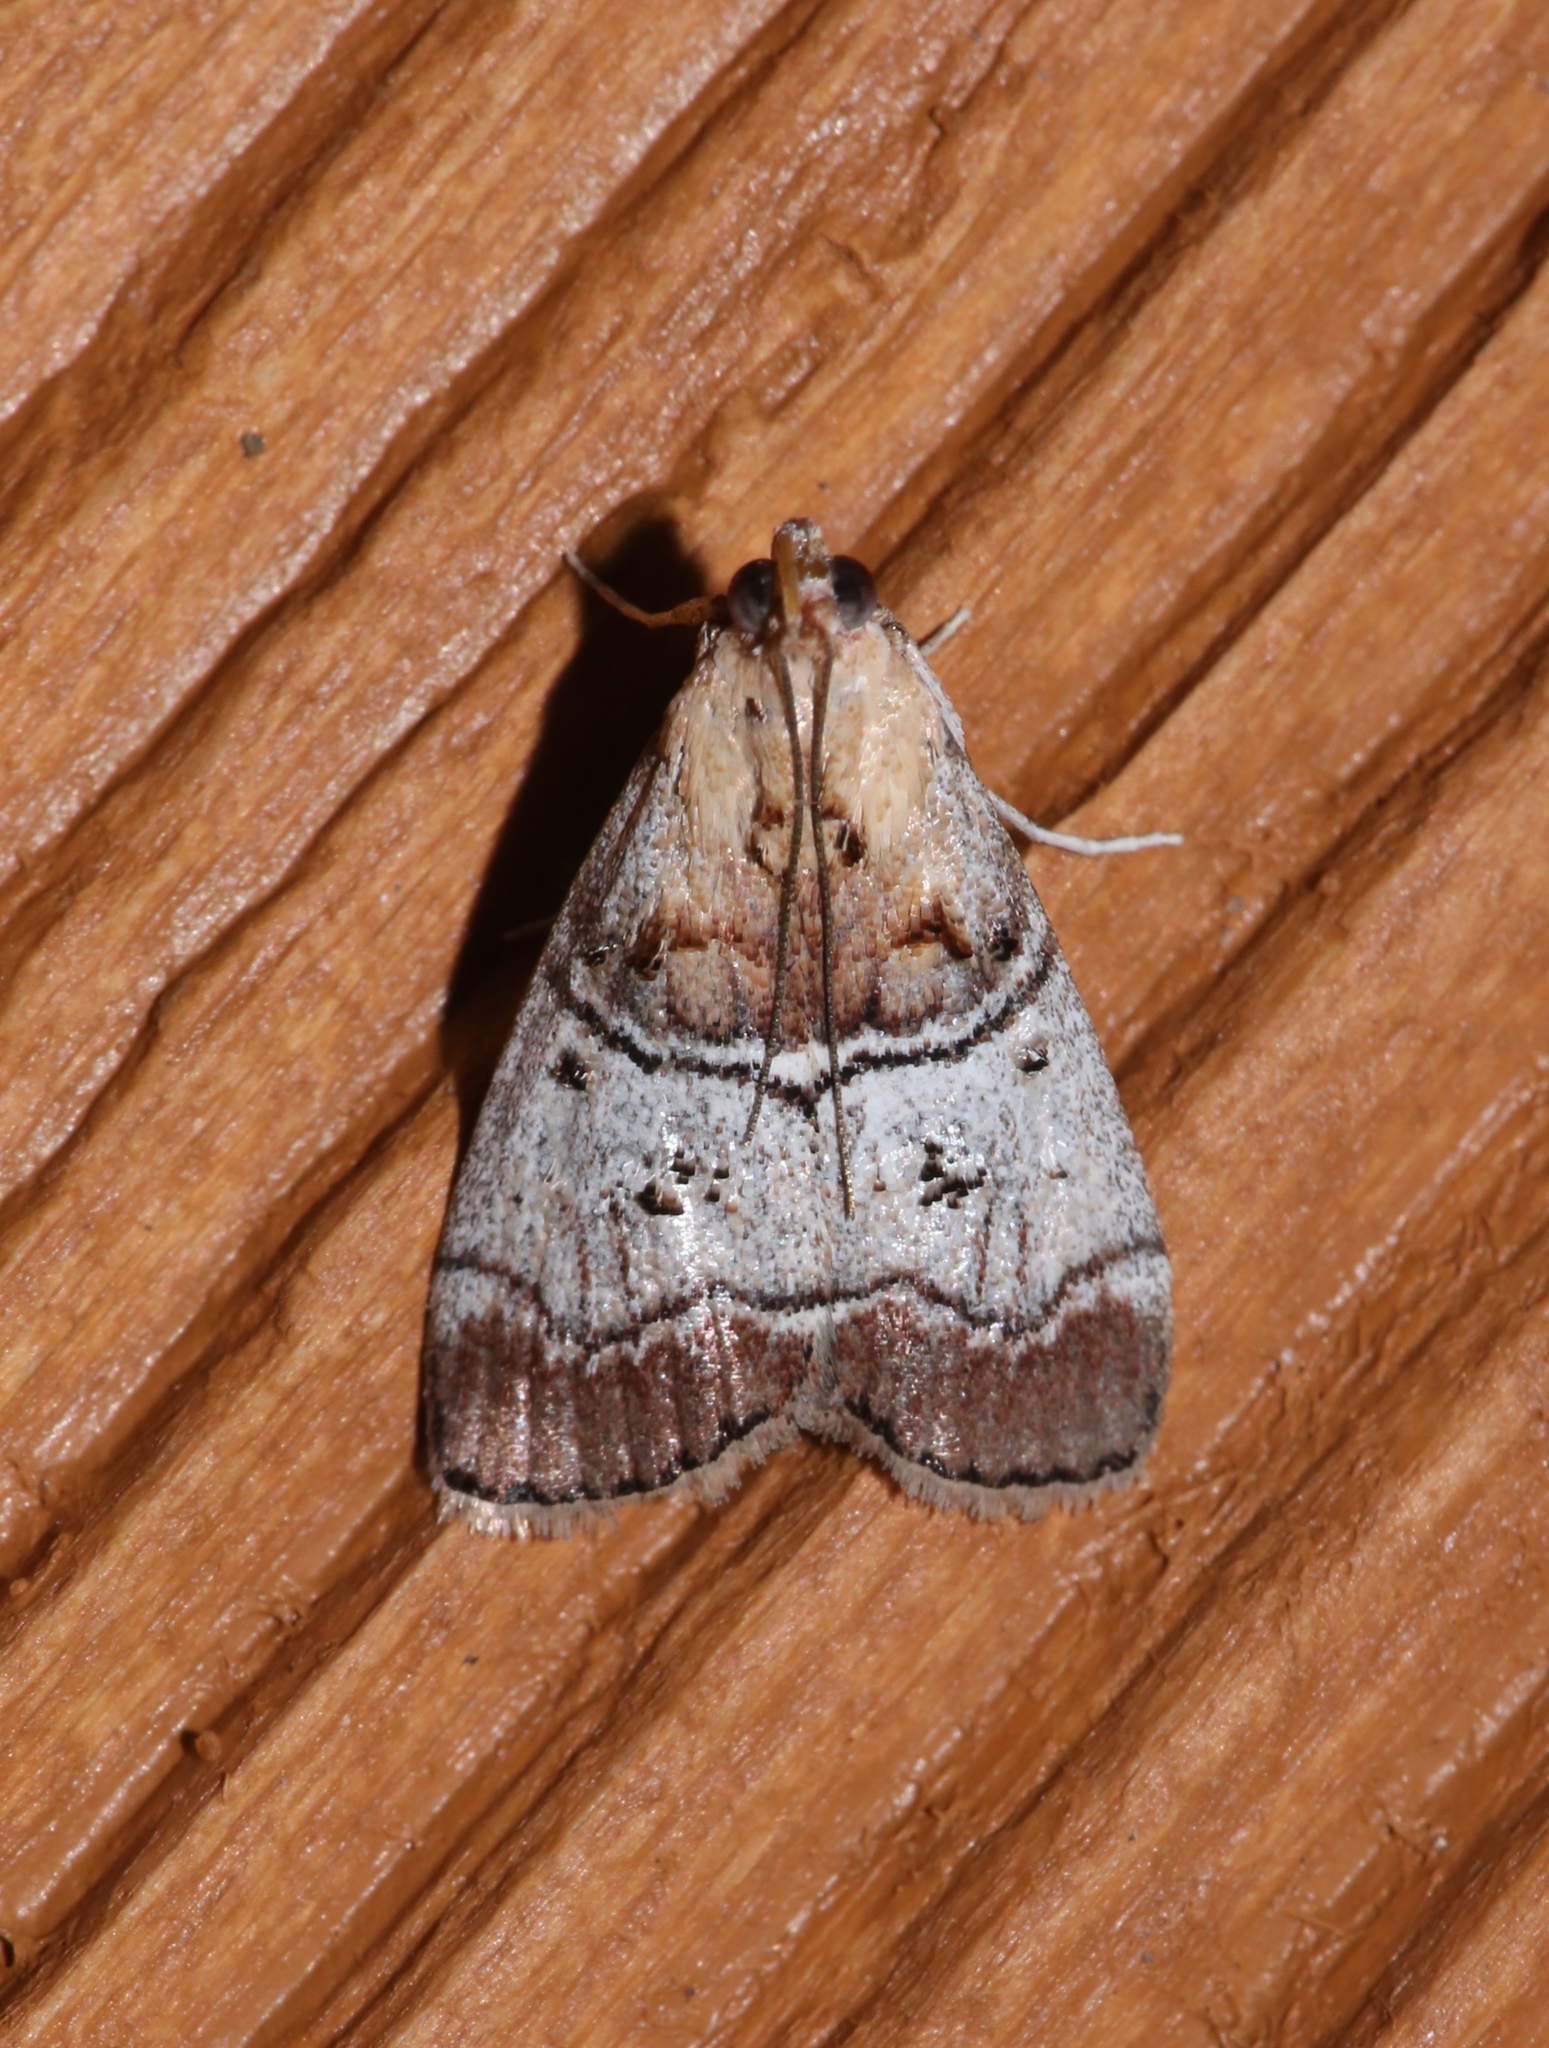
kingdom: Animalia
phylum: Arthropoda
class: Insecta
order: Lepidoptera
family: Pyralidae
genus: Pococera
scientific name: Pococera maritimalis
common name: Gray-banded pococera moth
